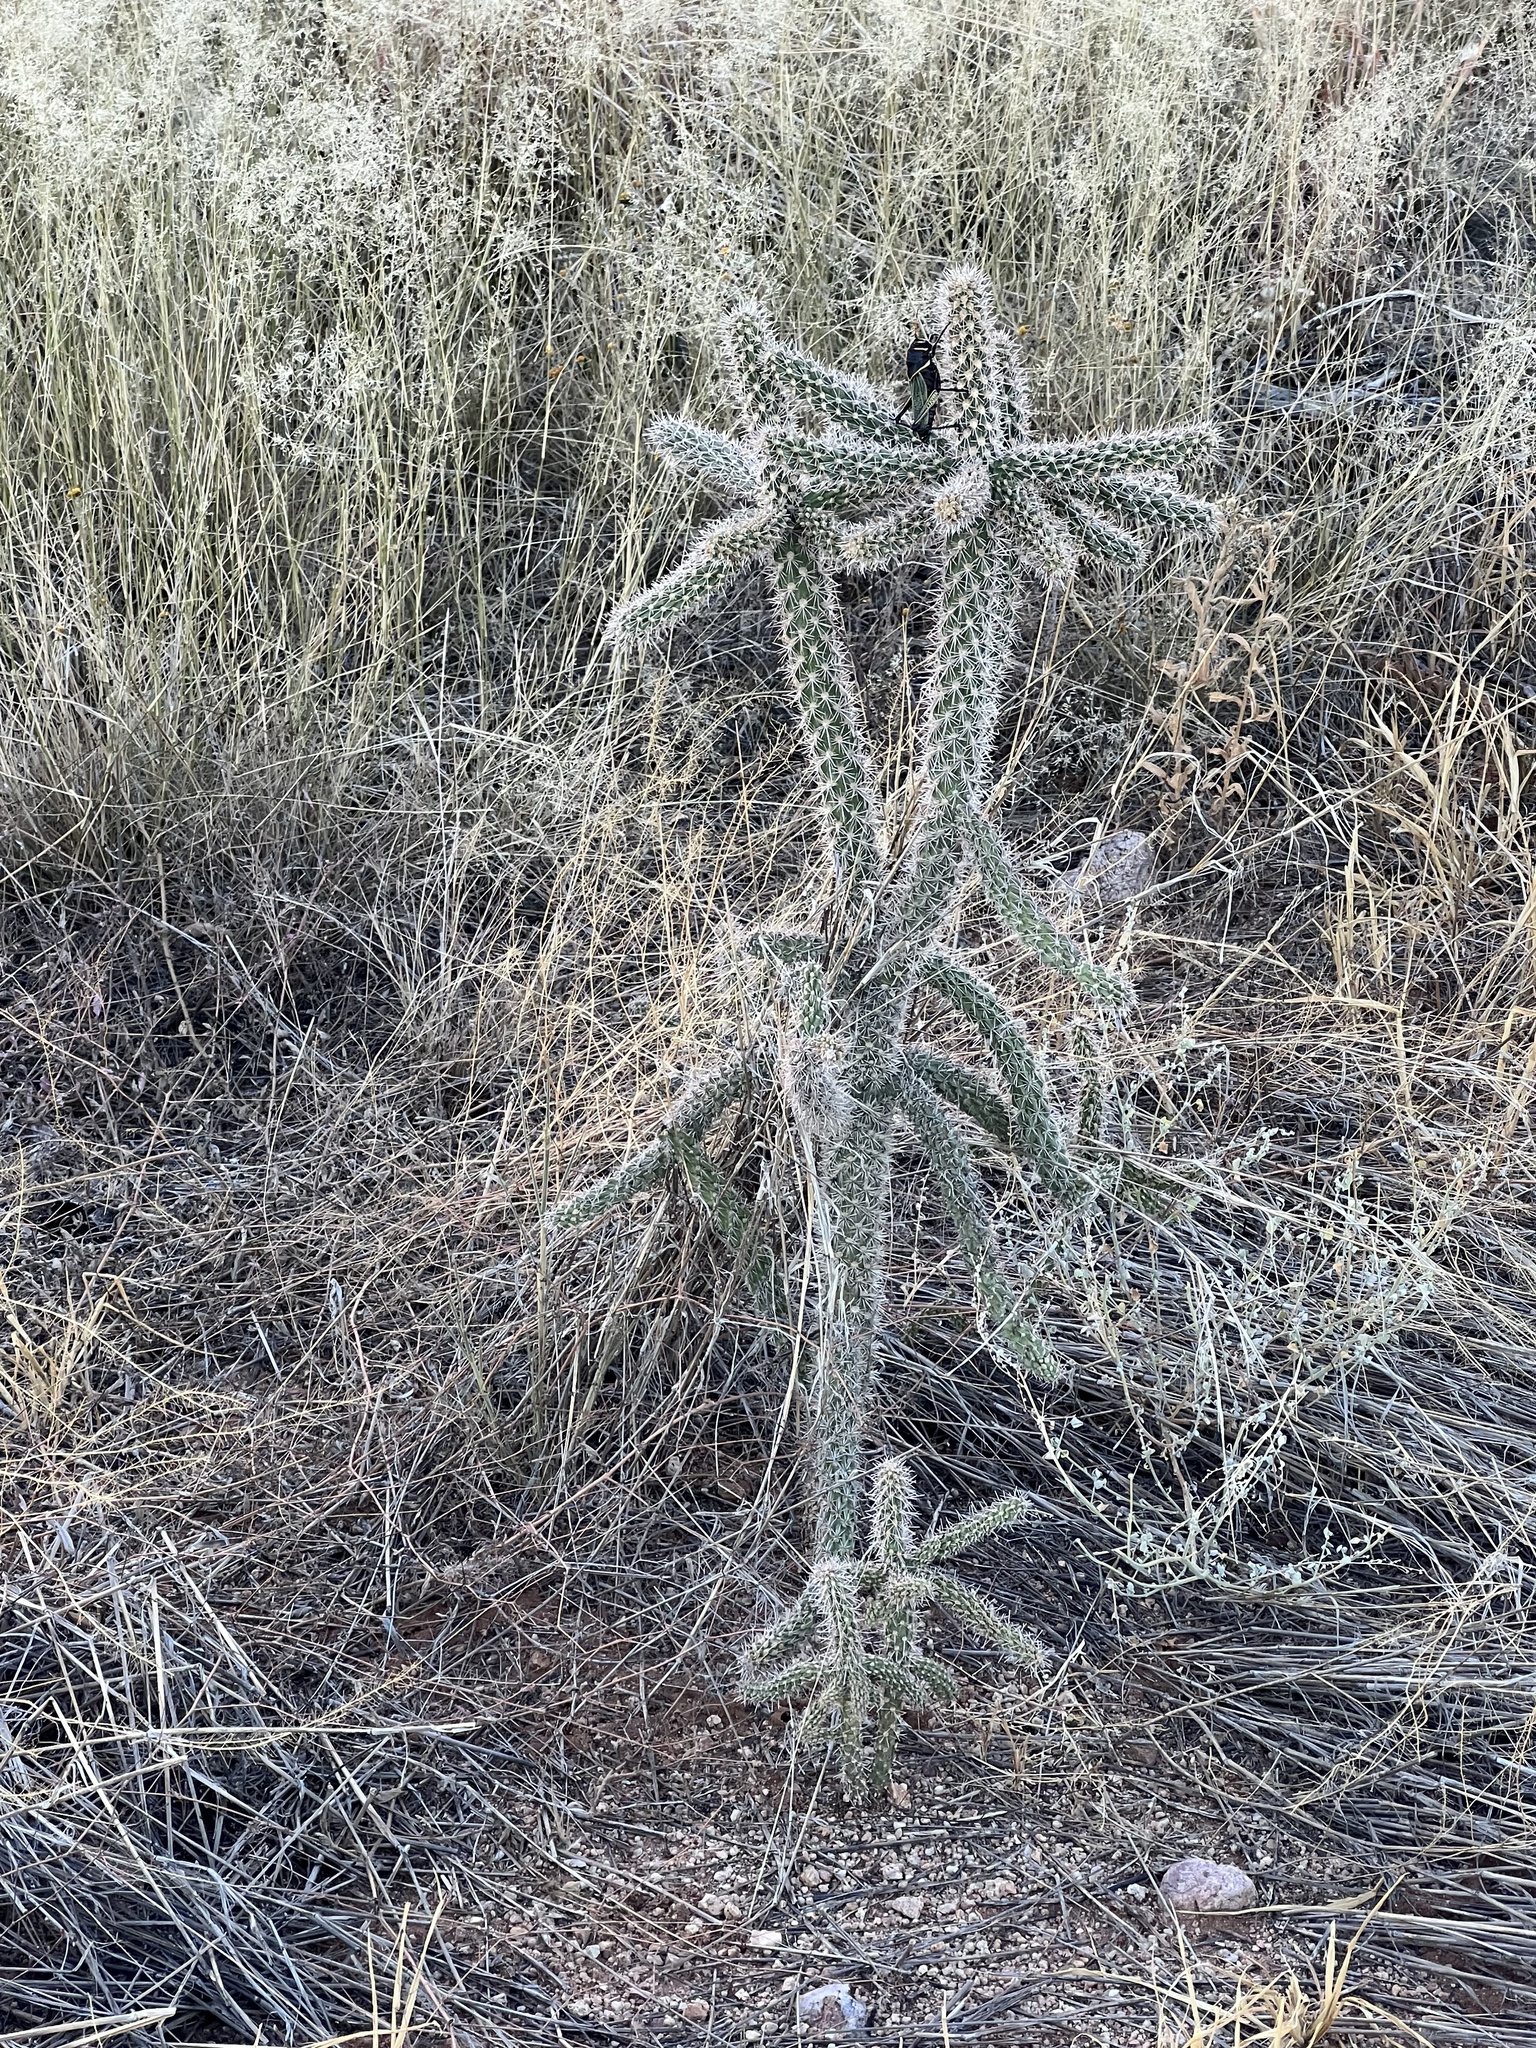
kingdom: Plantae
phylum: Tracheophyta
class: Magnoliopsida
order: Caryophyllales
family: Cactaceae
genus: Cylindropuntia
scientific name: Cylindropuntia imbricata
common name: Candelabrum cactus
